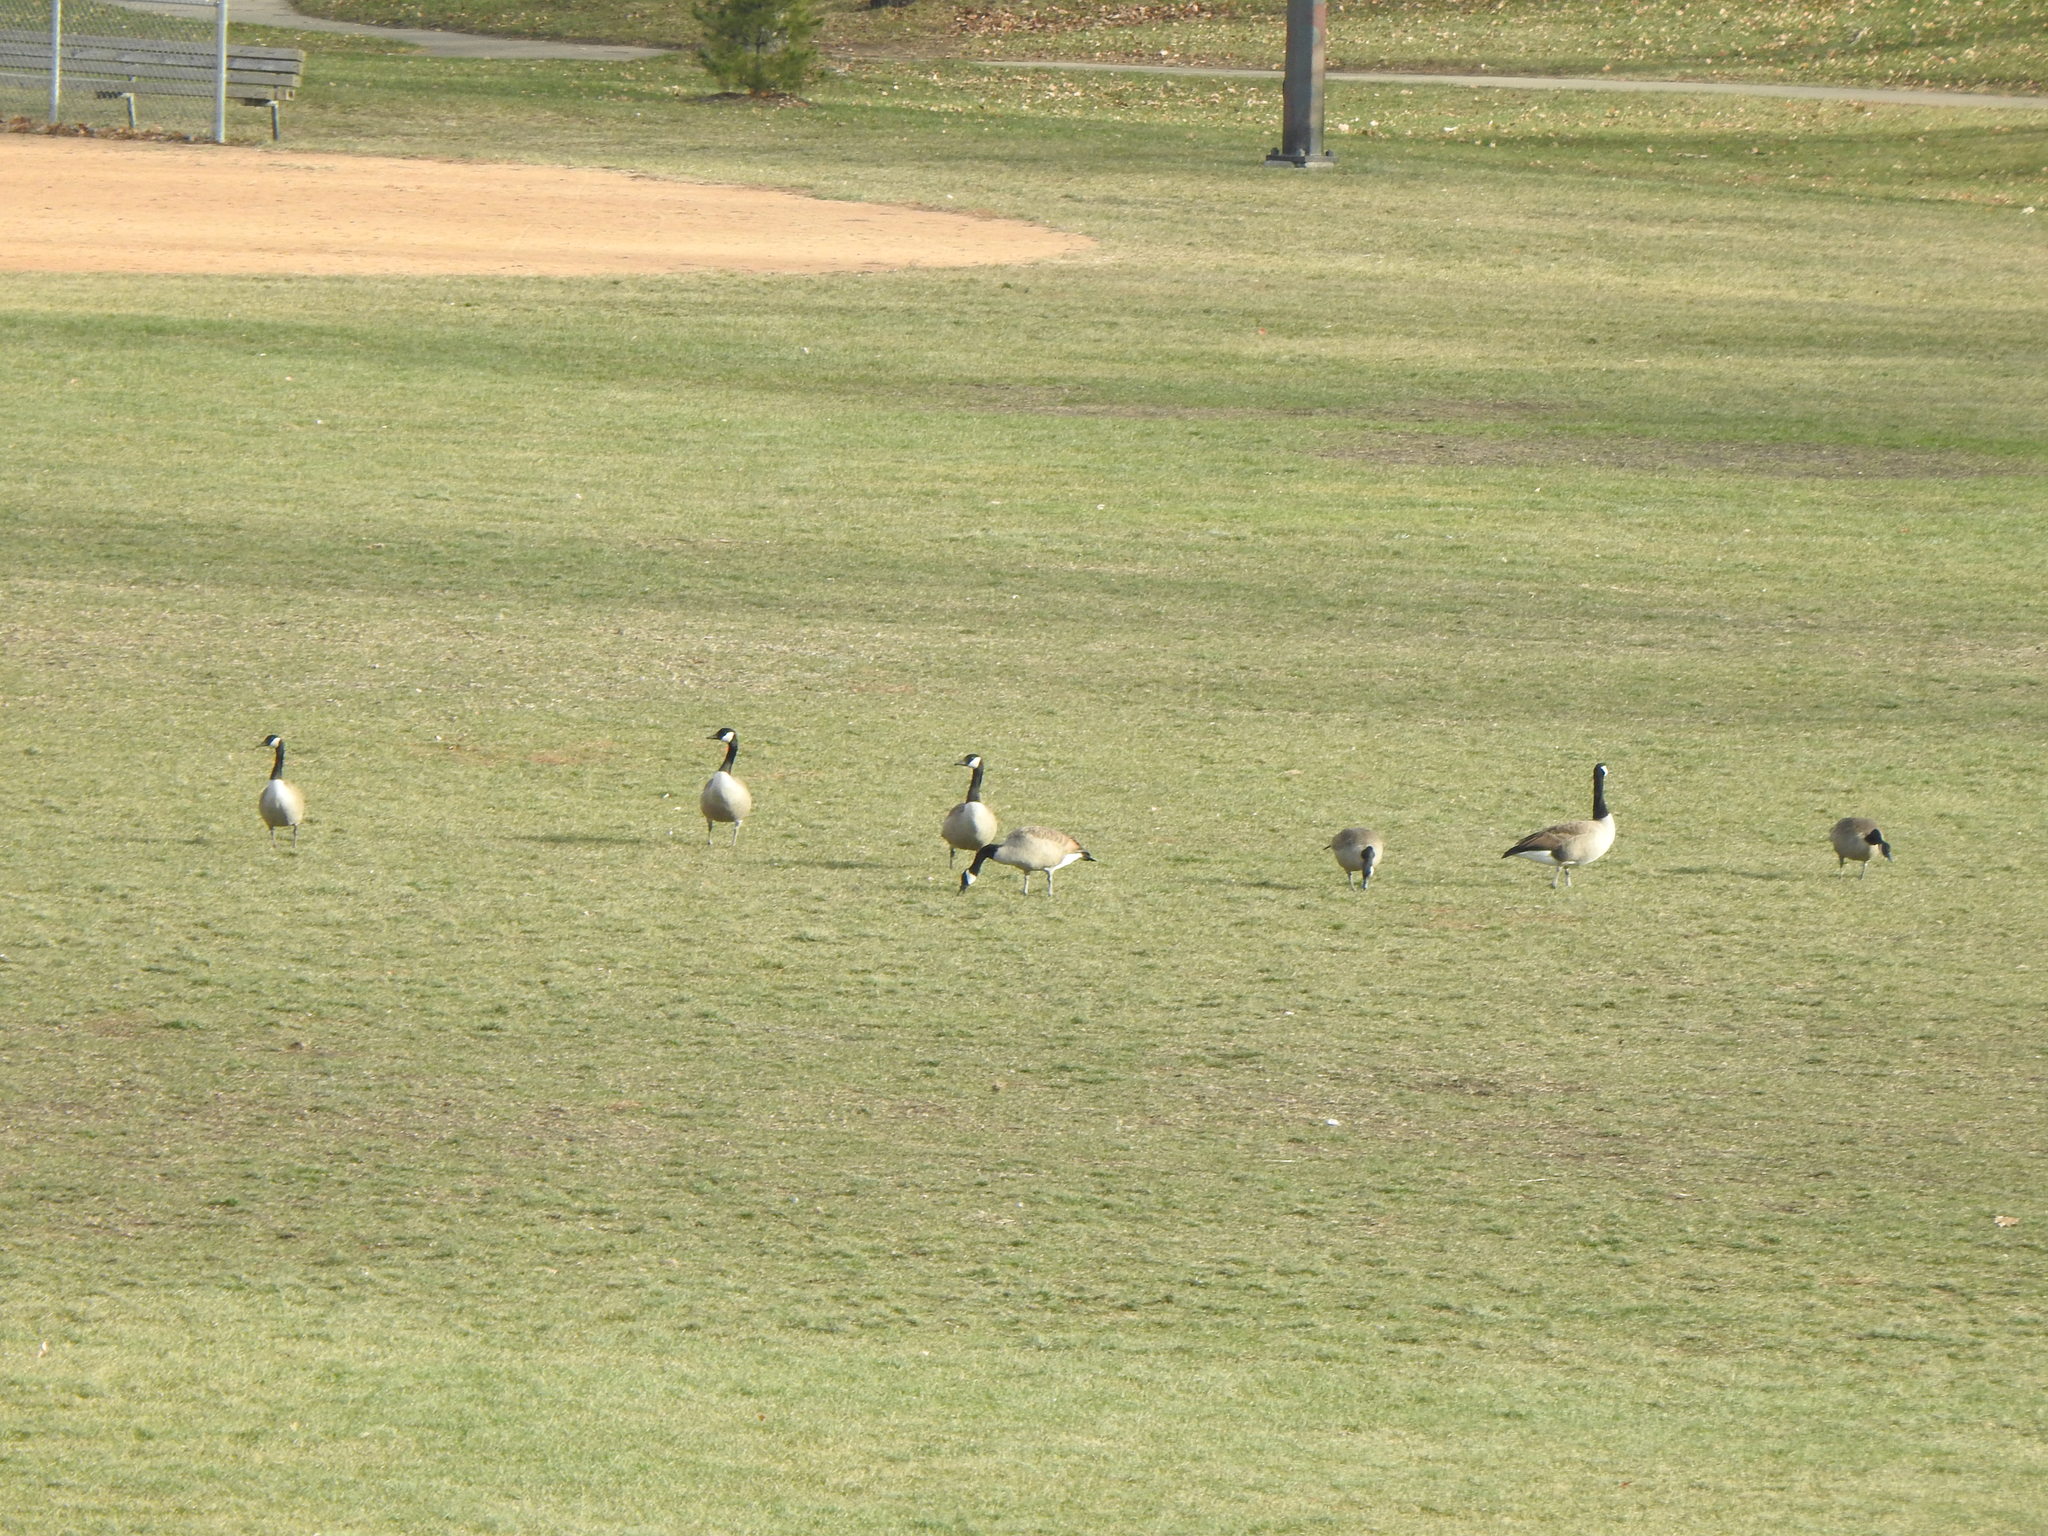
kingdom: Animalia
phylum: Chordata
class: Aves
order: Anseriformes
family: Anatidae
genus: Branta
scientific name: Branta canadensis
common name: Canada goose
